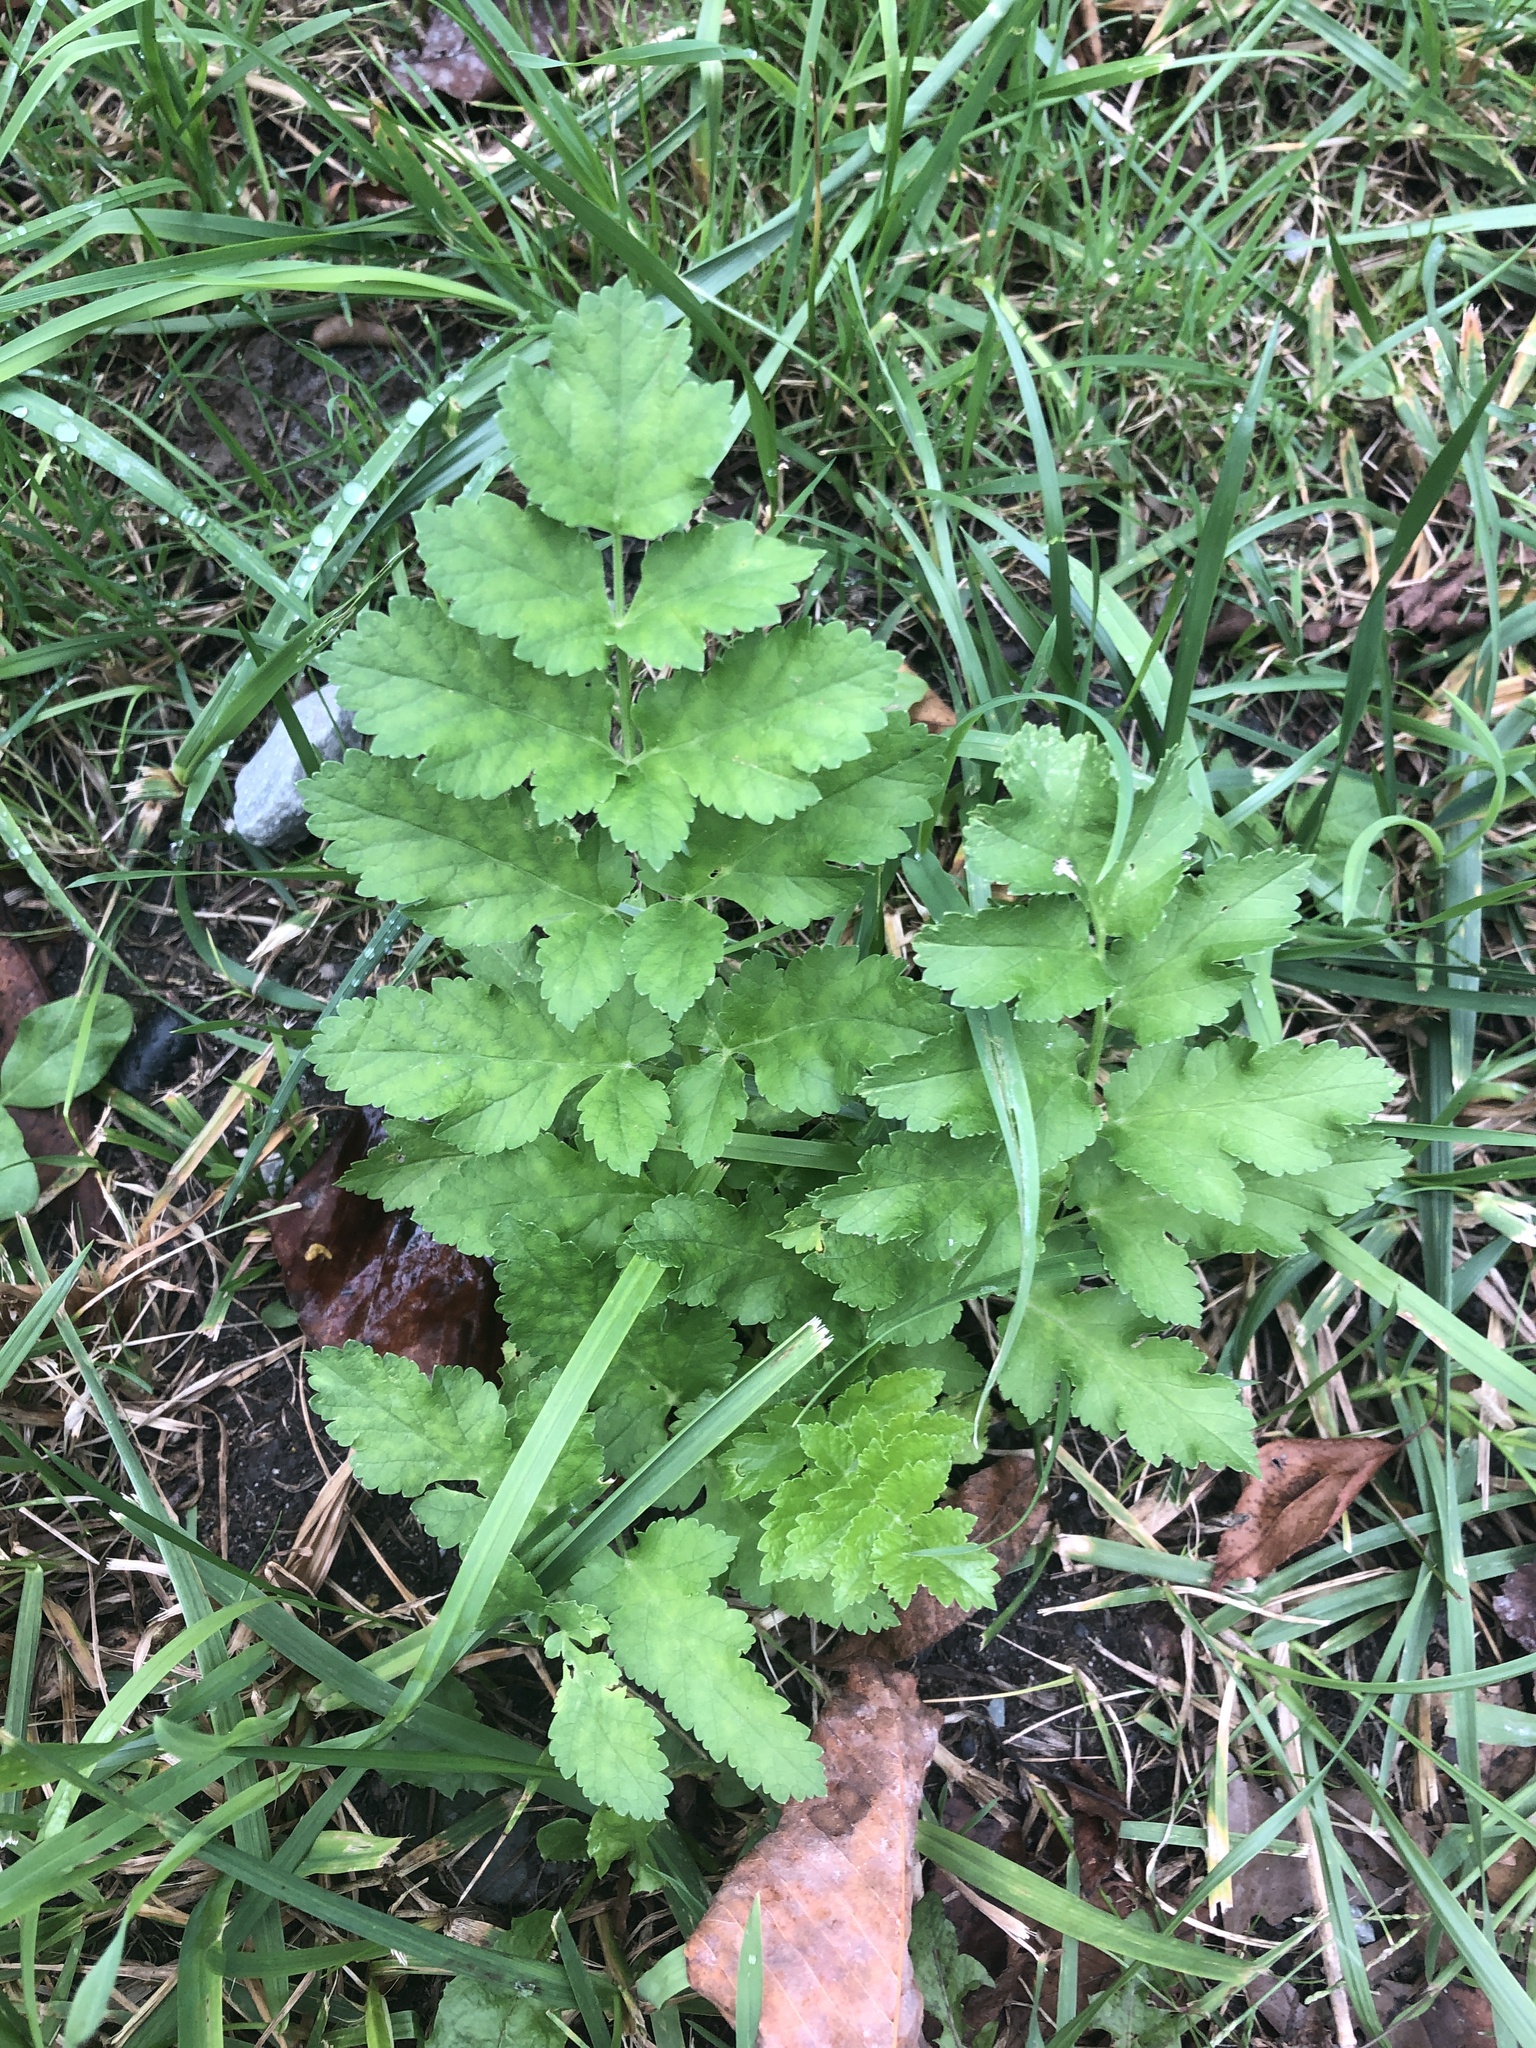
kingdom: Plantae
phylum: Tracheophyta
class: Magnoliopsida
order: Apiales
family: Apiaceae
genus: Pastinaca
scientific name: Pastinaca sativa
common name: Wild parsnip
